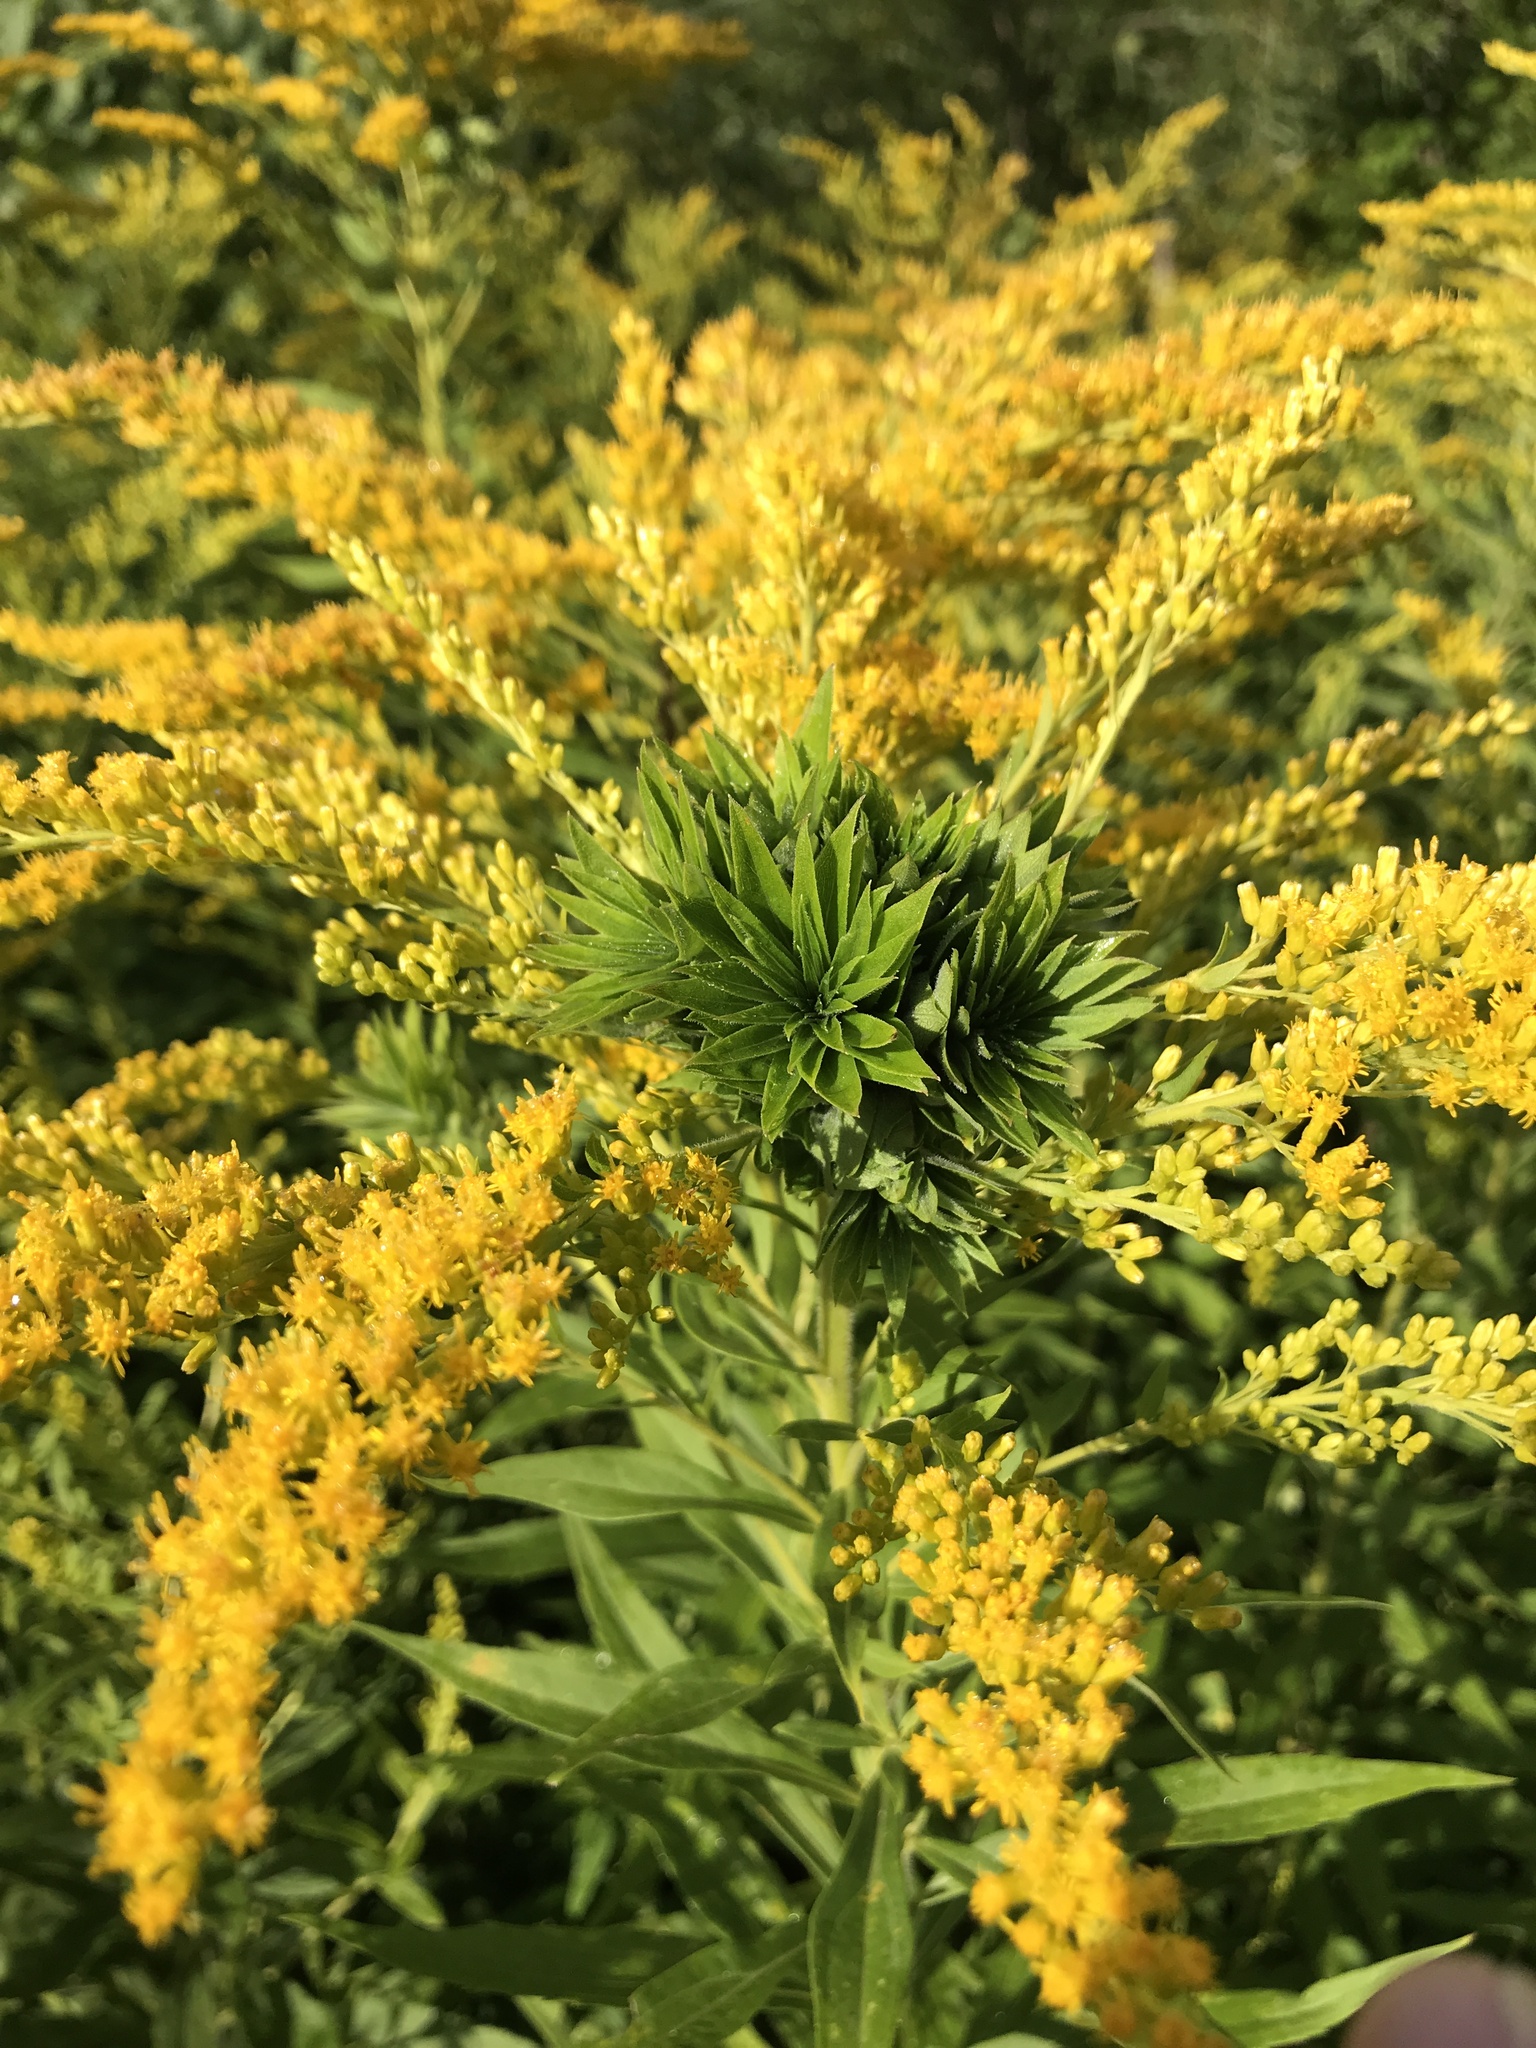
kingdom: Animalia
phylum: Arthropoda
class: Insecta
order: Diptera
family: Cecidomyiidae
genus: Rhopalomyia
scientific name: Rhopalomyia solidaginis
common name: Goldenrod bunch gall midge
